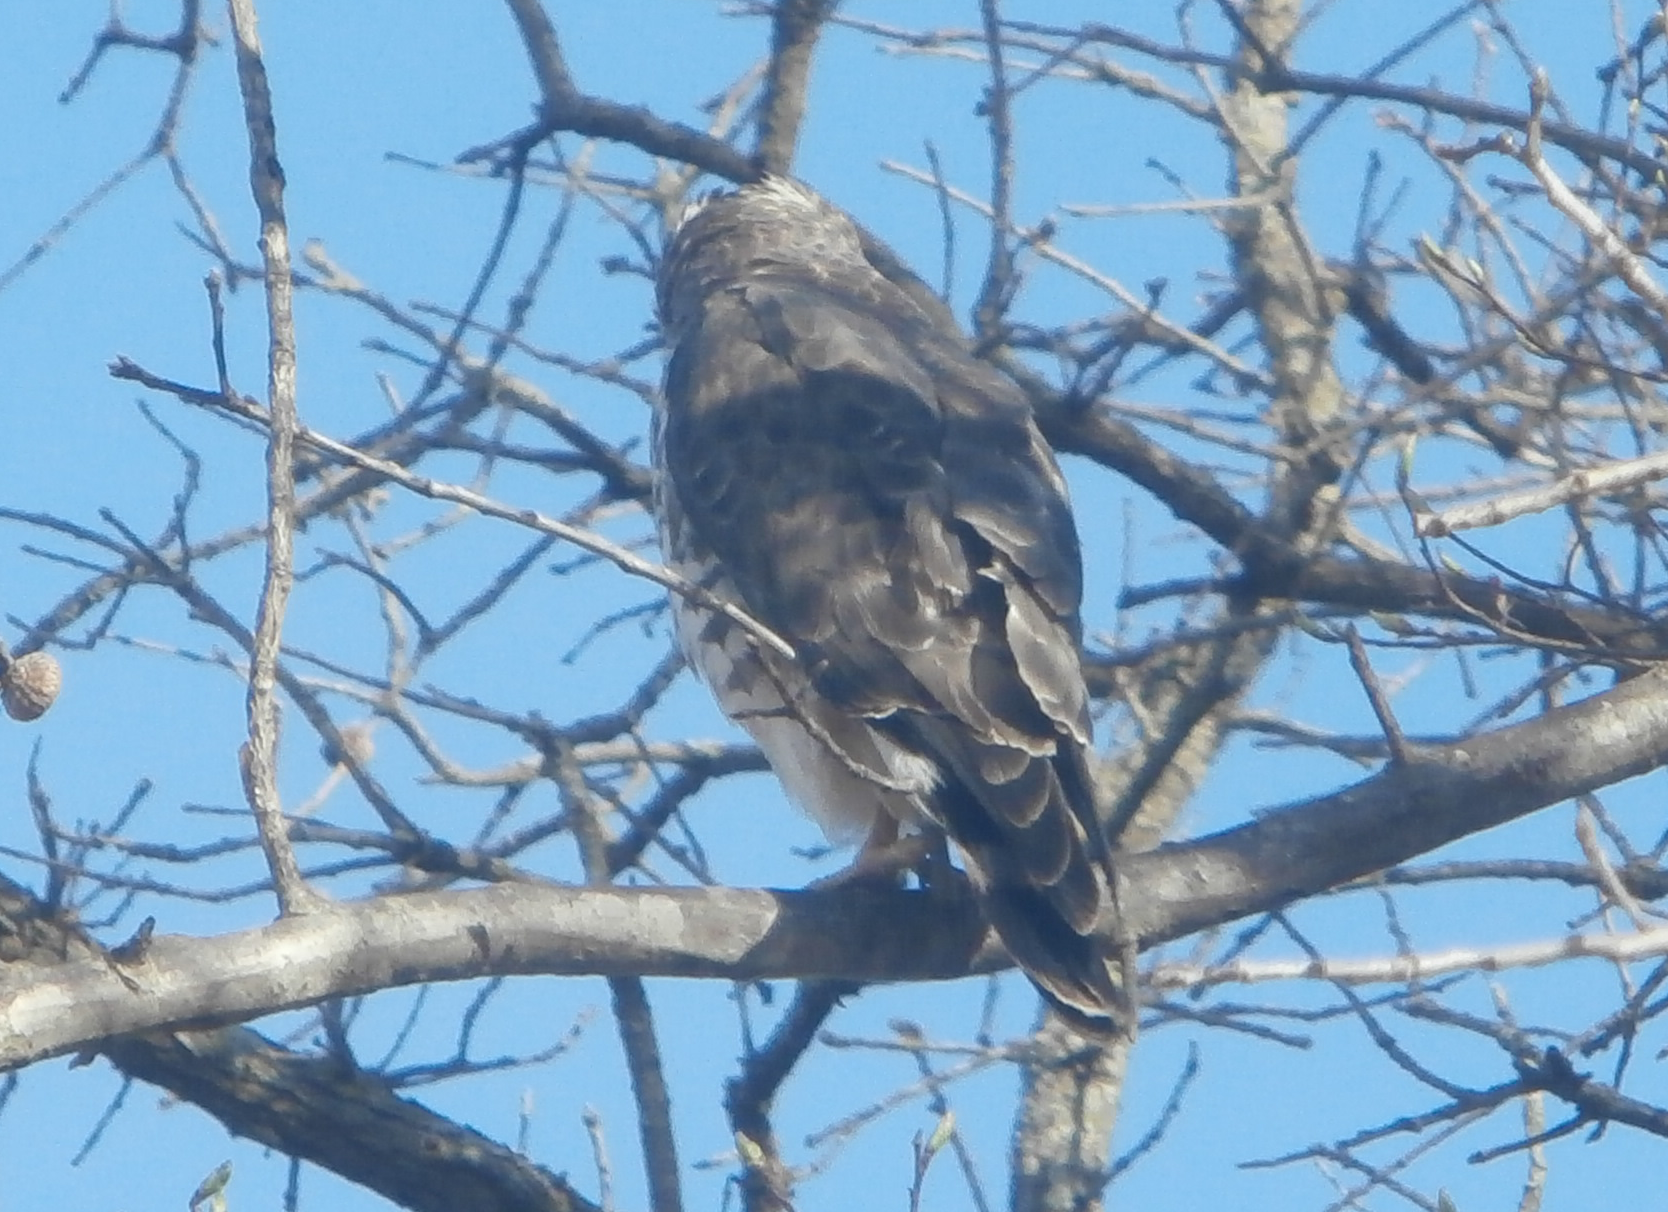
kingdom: Animalia
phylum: Chordata
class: Aves
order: Accipitriformes
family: Accipitridae
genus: Buteo
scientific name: Buteo platypterus
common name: Broad-winged hawk
